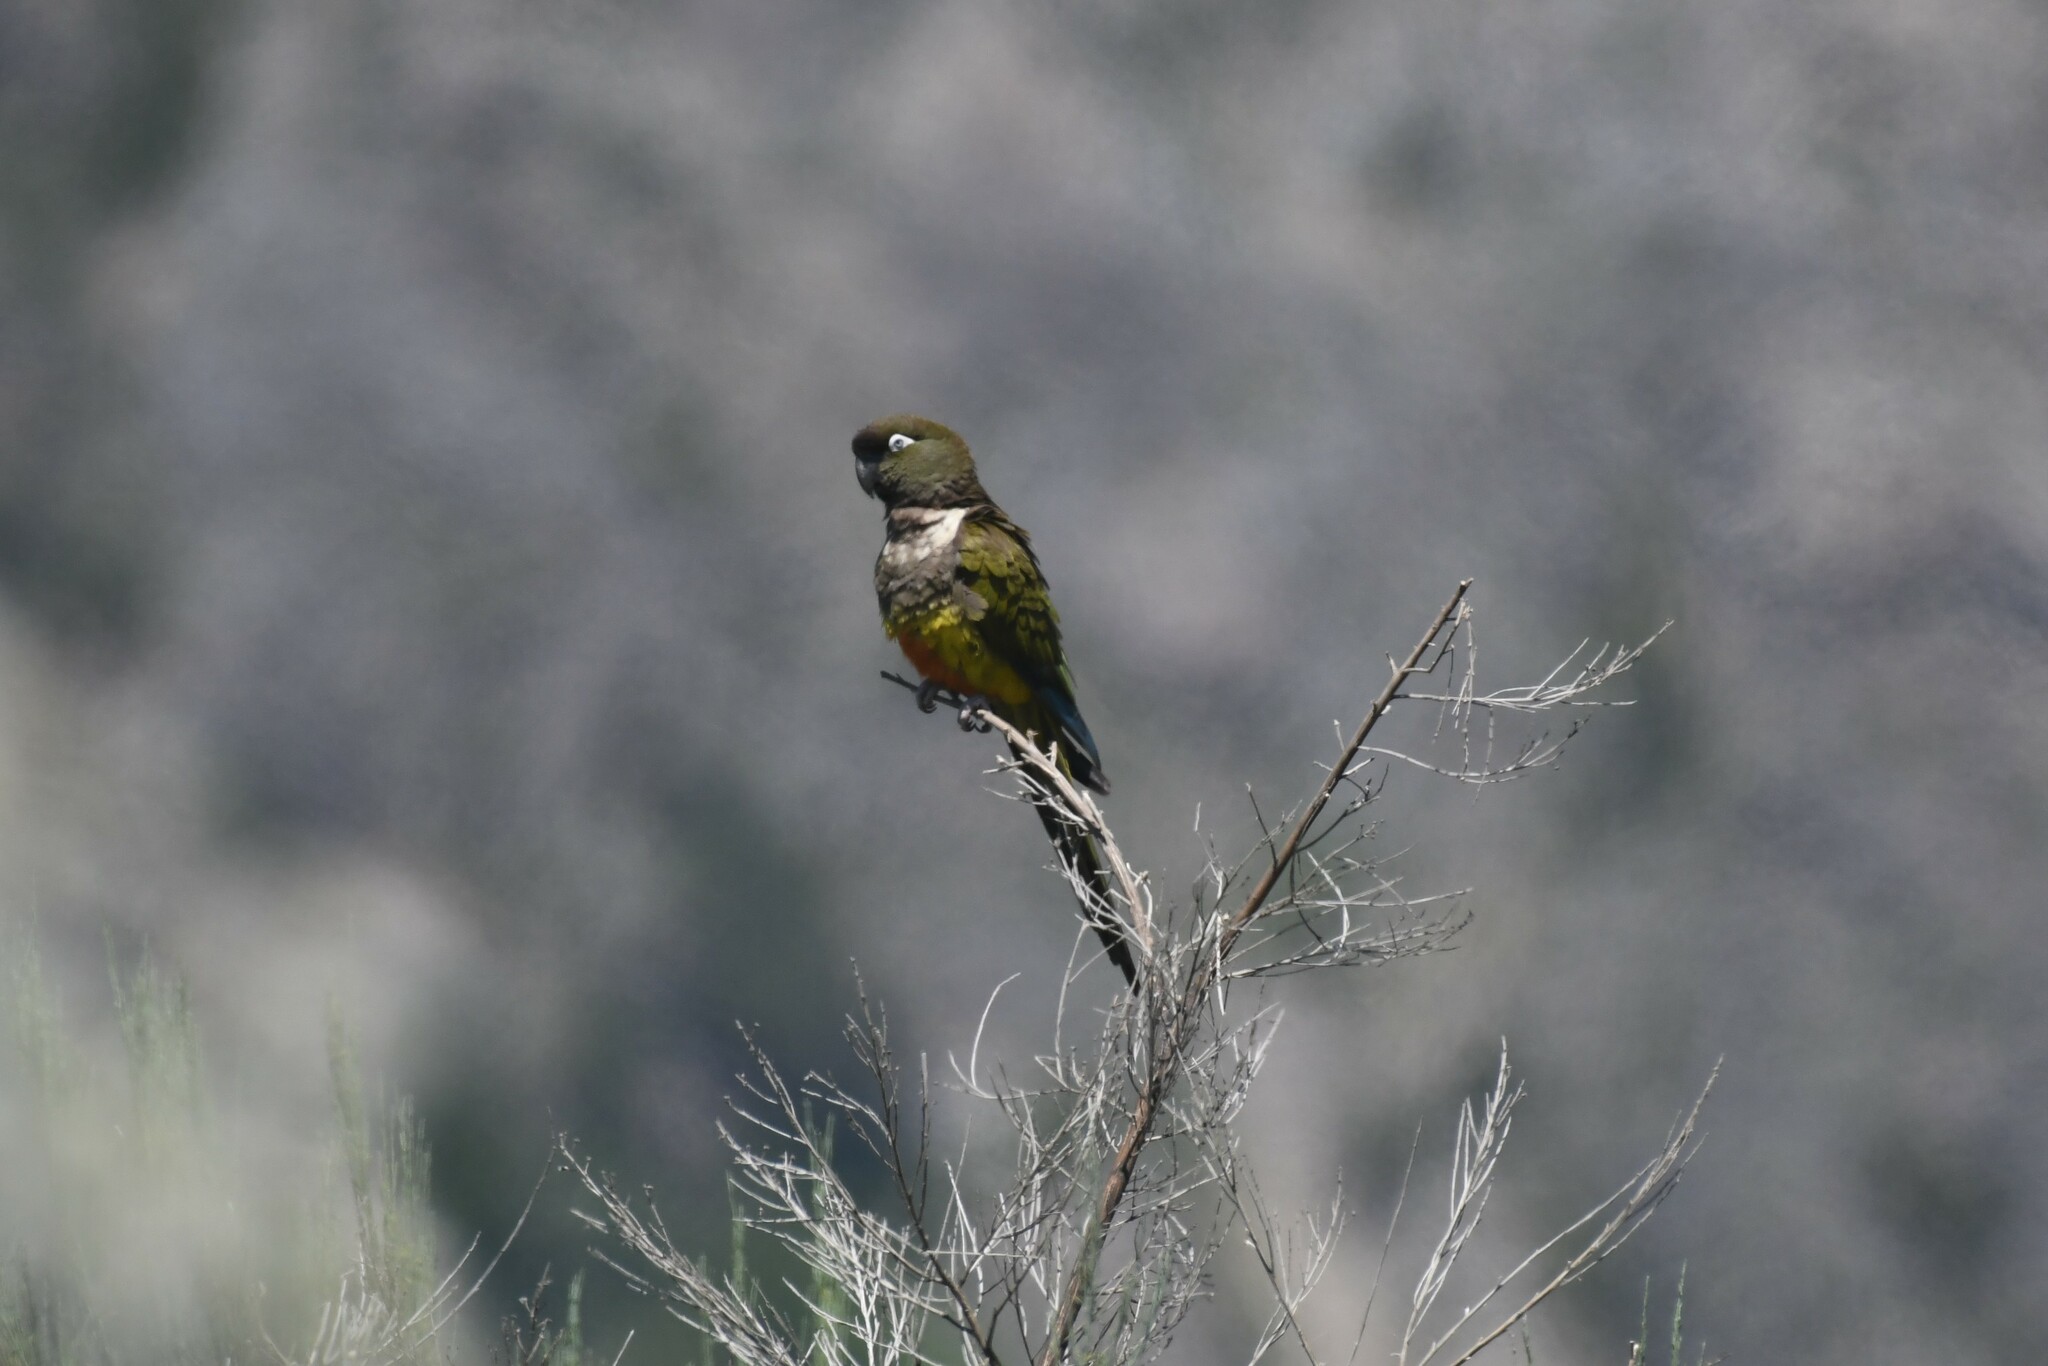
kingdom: Animalia
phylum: Chordata
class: Aves
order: Psittaciformes
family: Psittacidae
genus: Cyanoliseus
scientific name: Cyanoliseus patagonus
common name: Burrowing parrot
